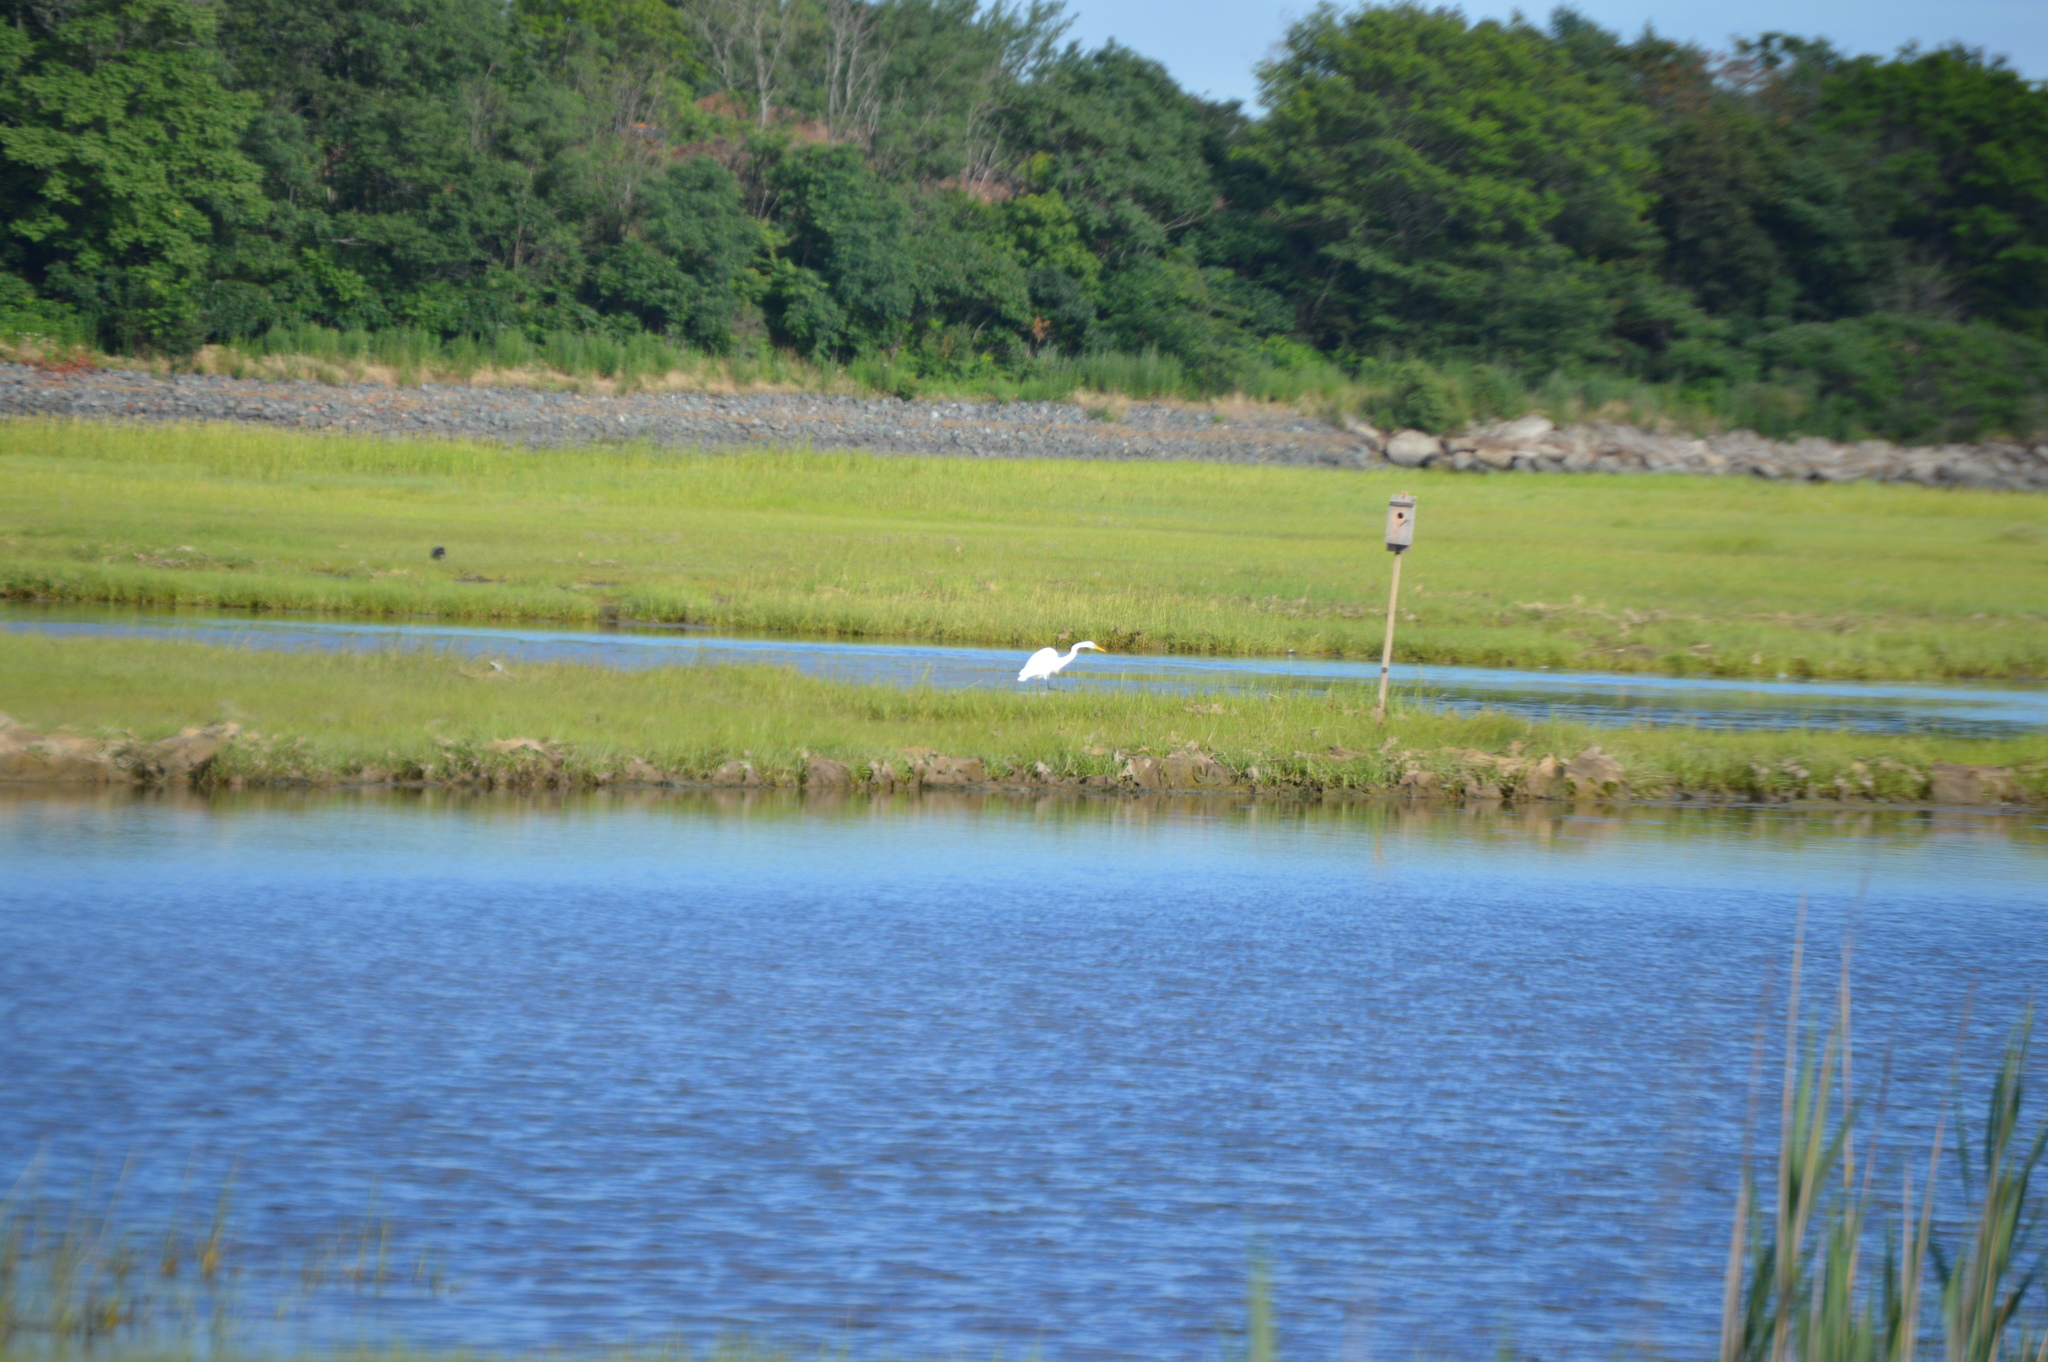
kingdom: Animalia
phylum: Chordata
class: Aves
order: Pelecaniformes
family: Ardeidae
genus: Ardea
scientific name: Ardea alba
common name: Great egret
